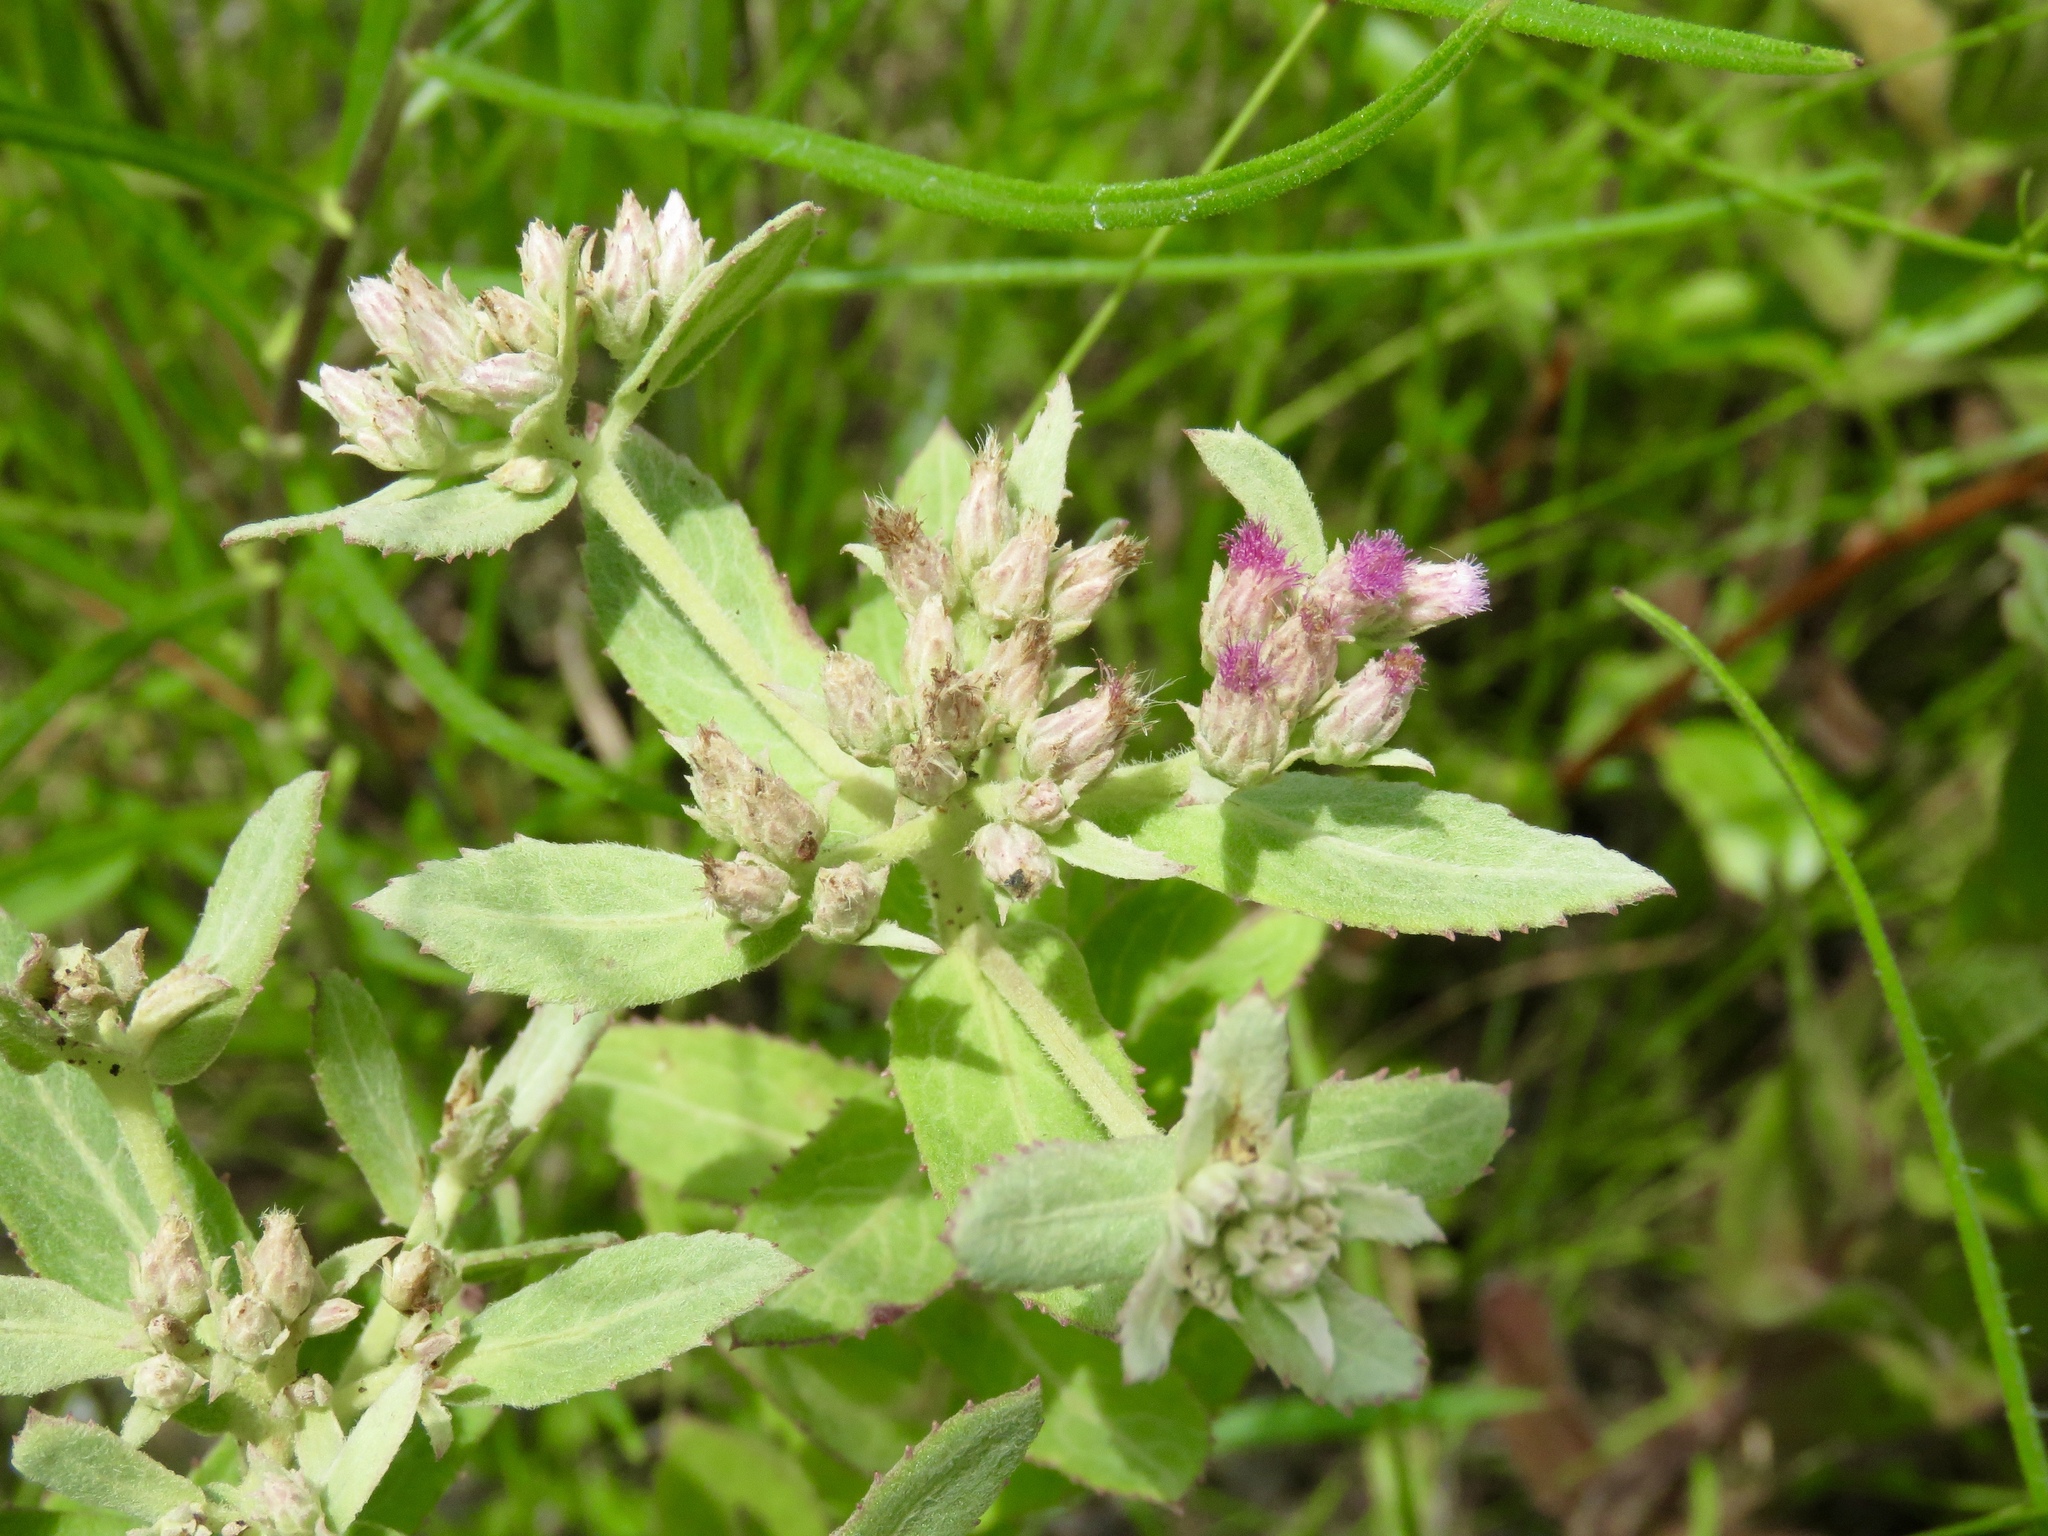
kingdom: Plantae
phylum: Tracheophyta
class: Magnoliopsida
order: Asterales
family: Asteraceae
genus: Pluchea
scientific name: Pluchea baccharis
